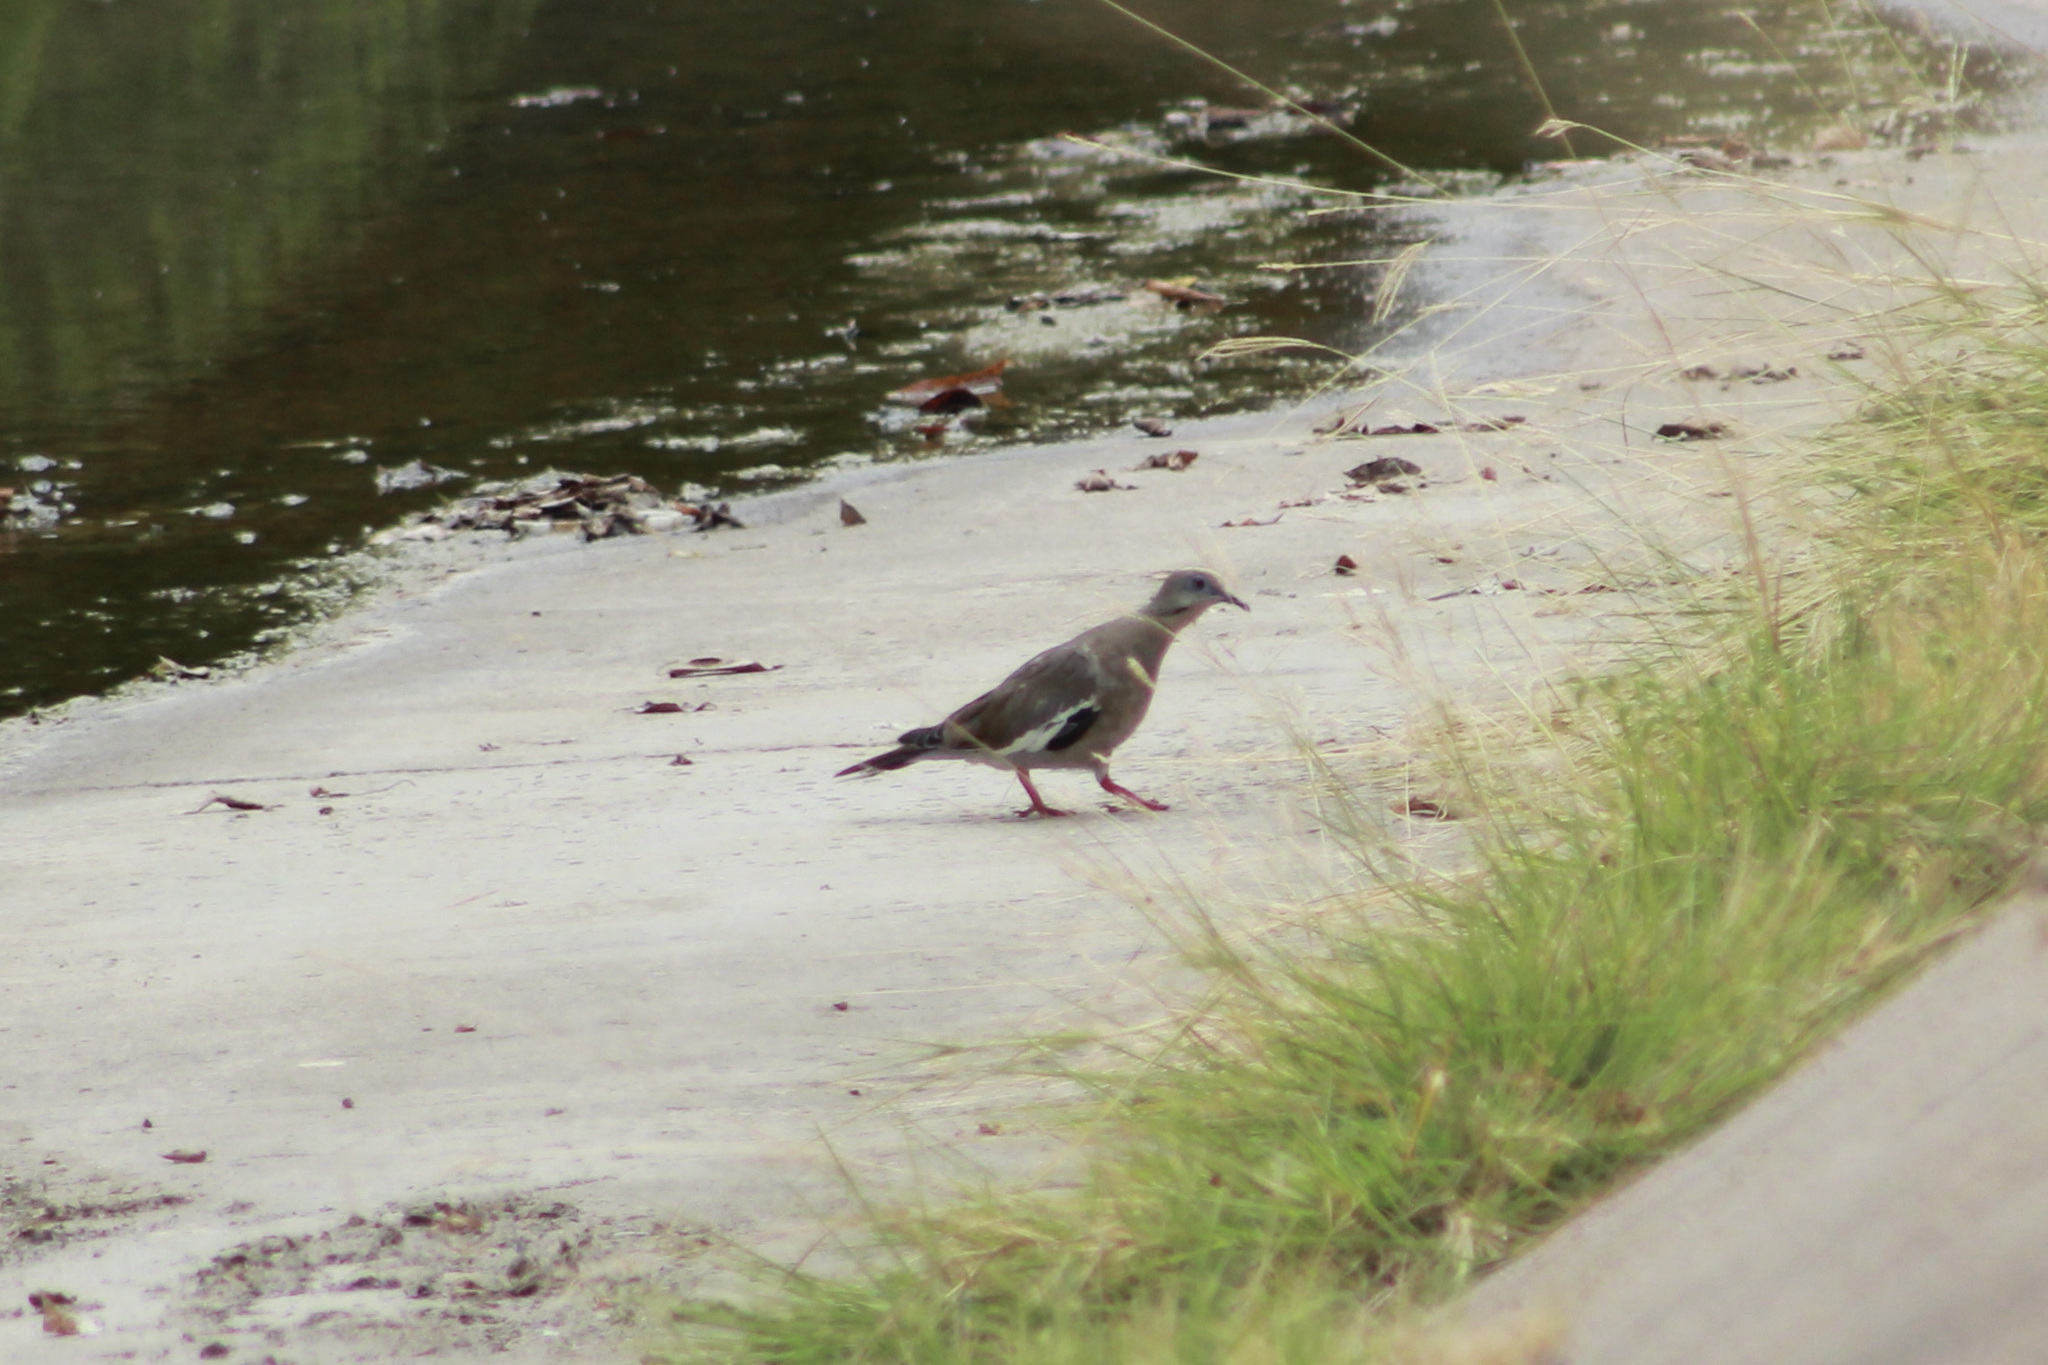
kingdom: Animalia
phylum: Chordata
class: Aves
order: Columbiformes
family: Columbidae
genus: Zenaida
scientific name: Zenaida asiatica
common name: White-winged dove
